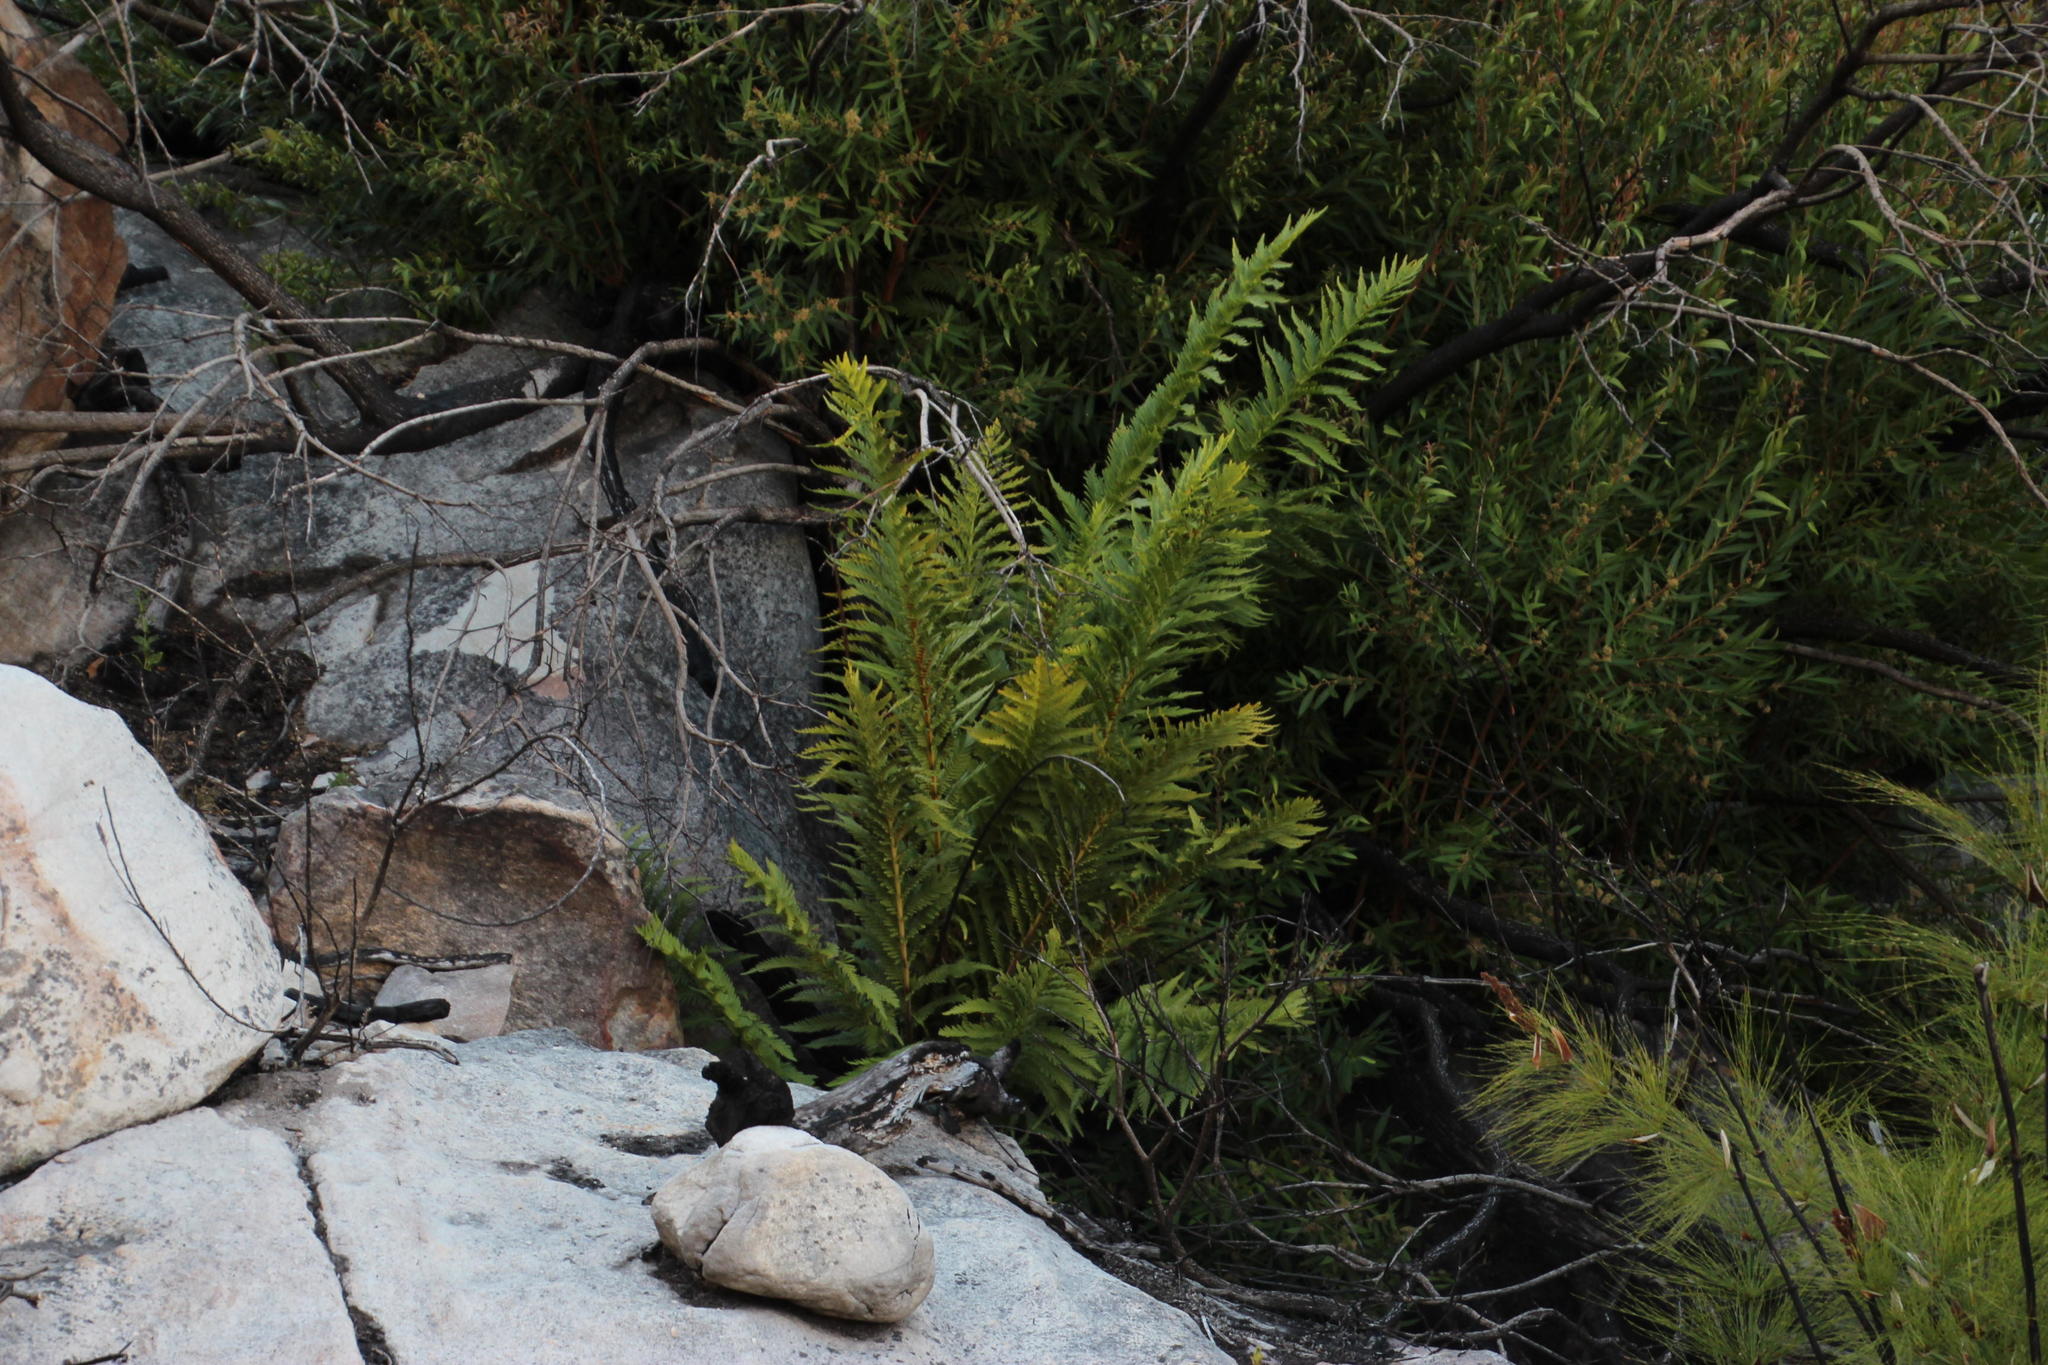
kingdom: Plantae
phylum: Tracheophyta
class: Polypodiopsida
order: Osmundales
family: Osmundaceae
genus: Todea
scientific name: Todea barbara
